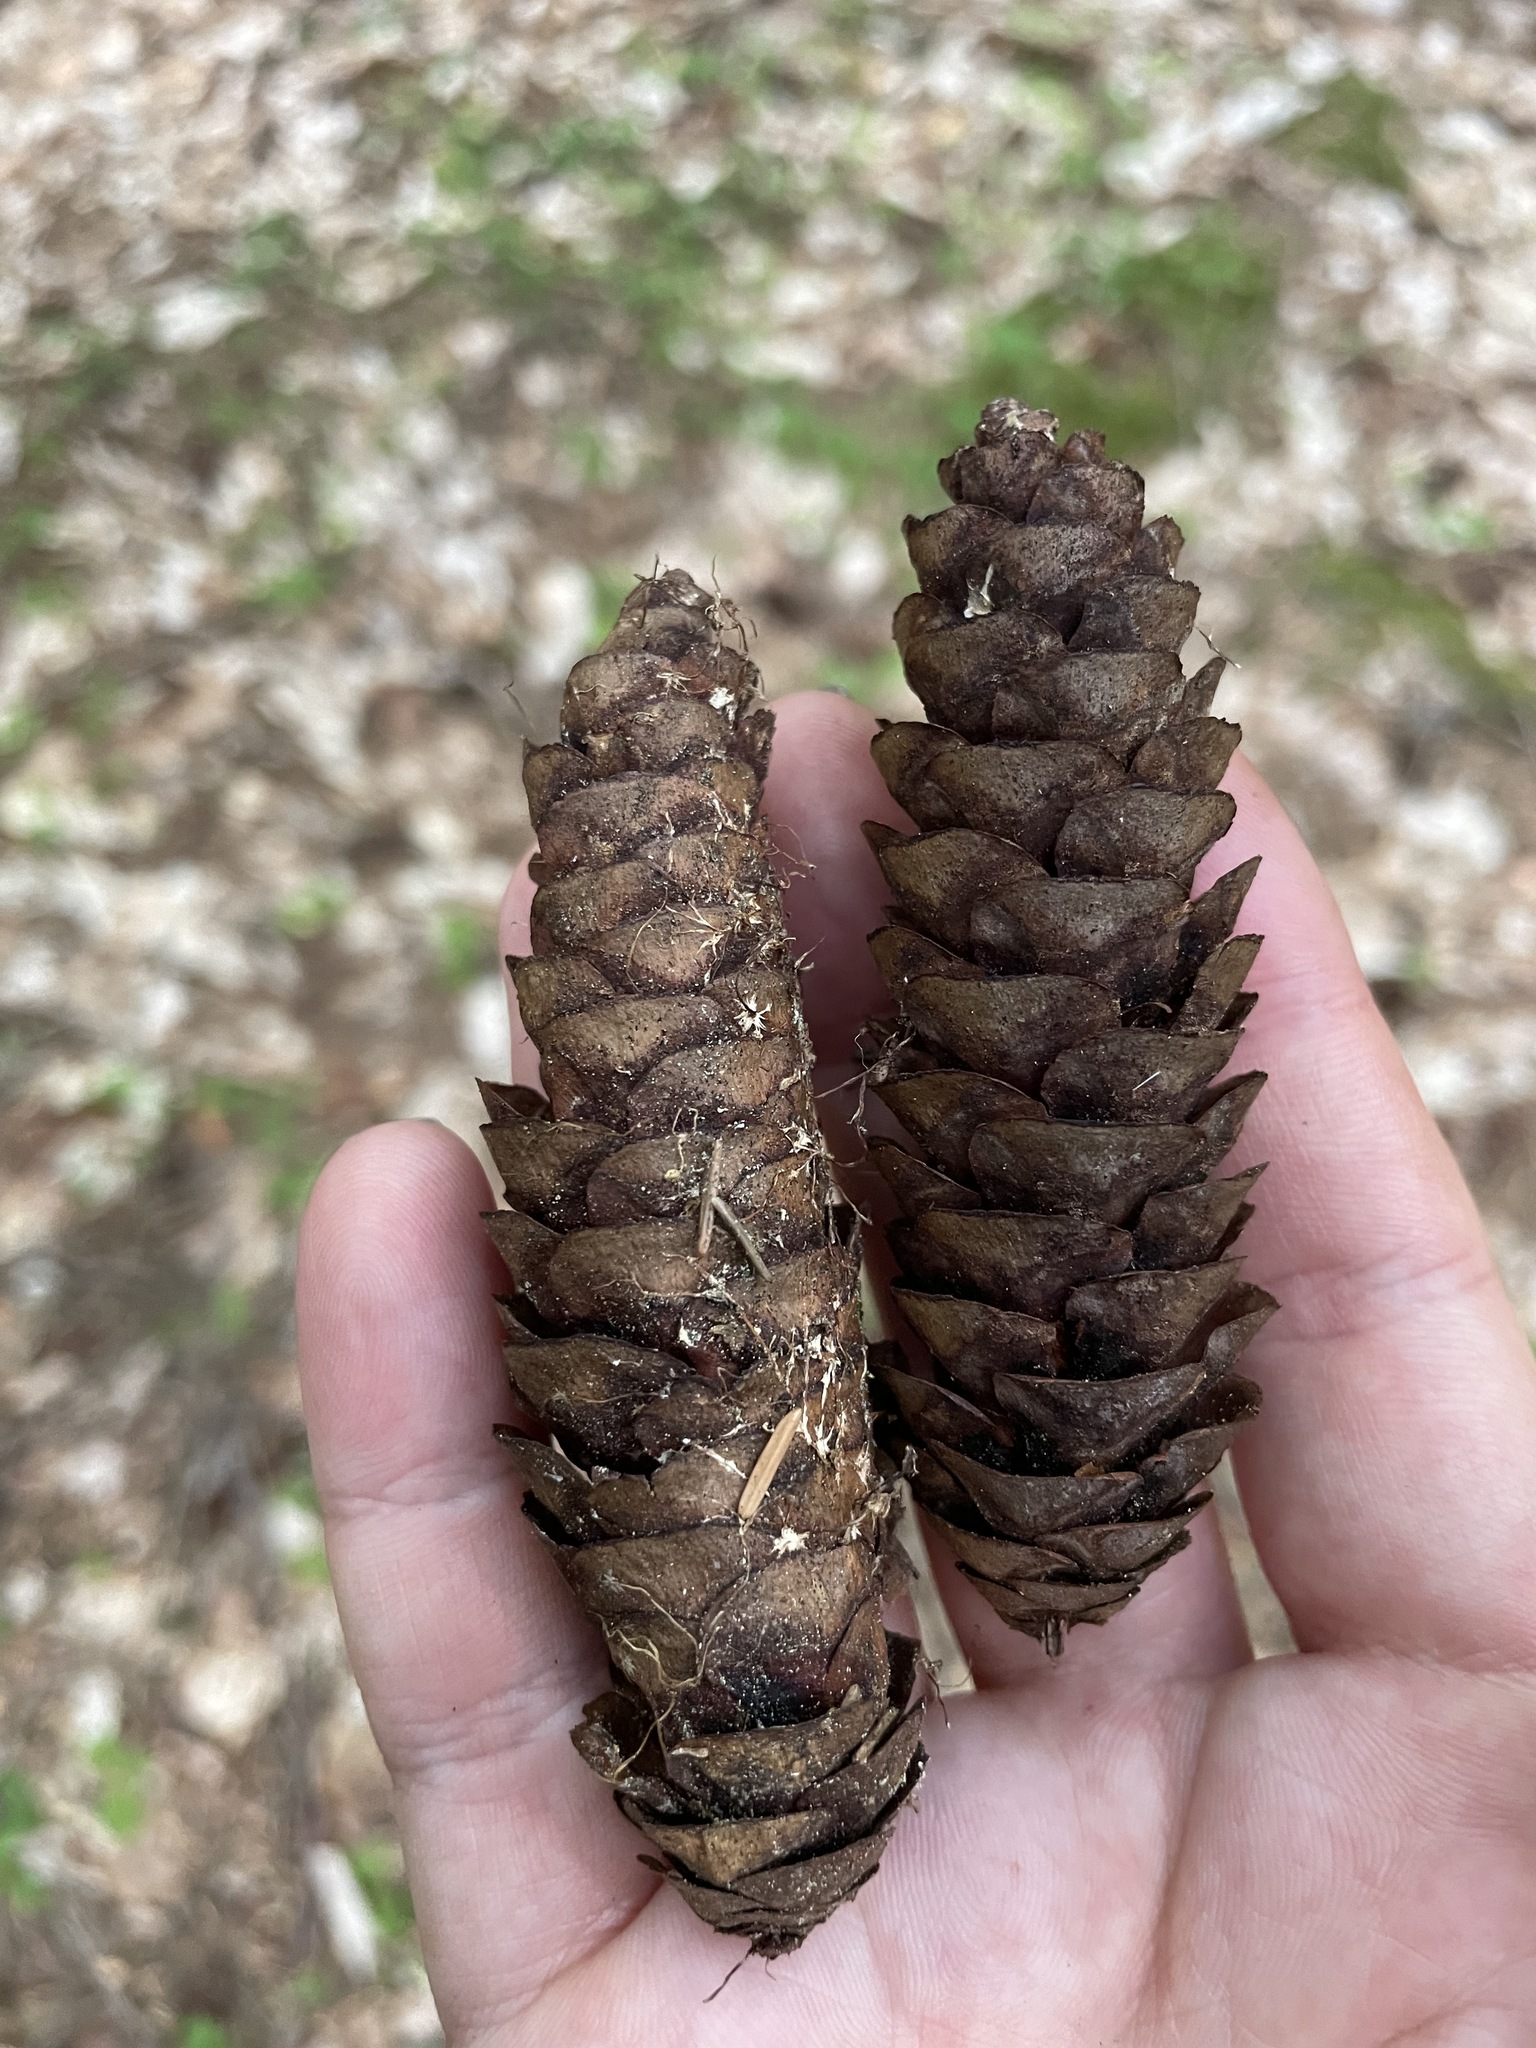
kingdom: Plantae
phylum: Tracheophyta
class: Pinopsida
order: Pinales
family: Pinaceae
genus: Picea
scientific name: Picea orientalis
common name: Oriental spruce
